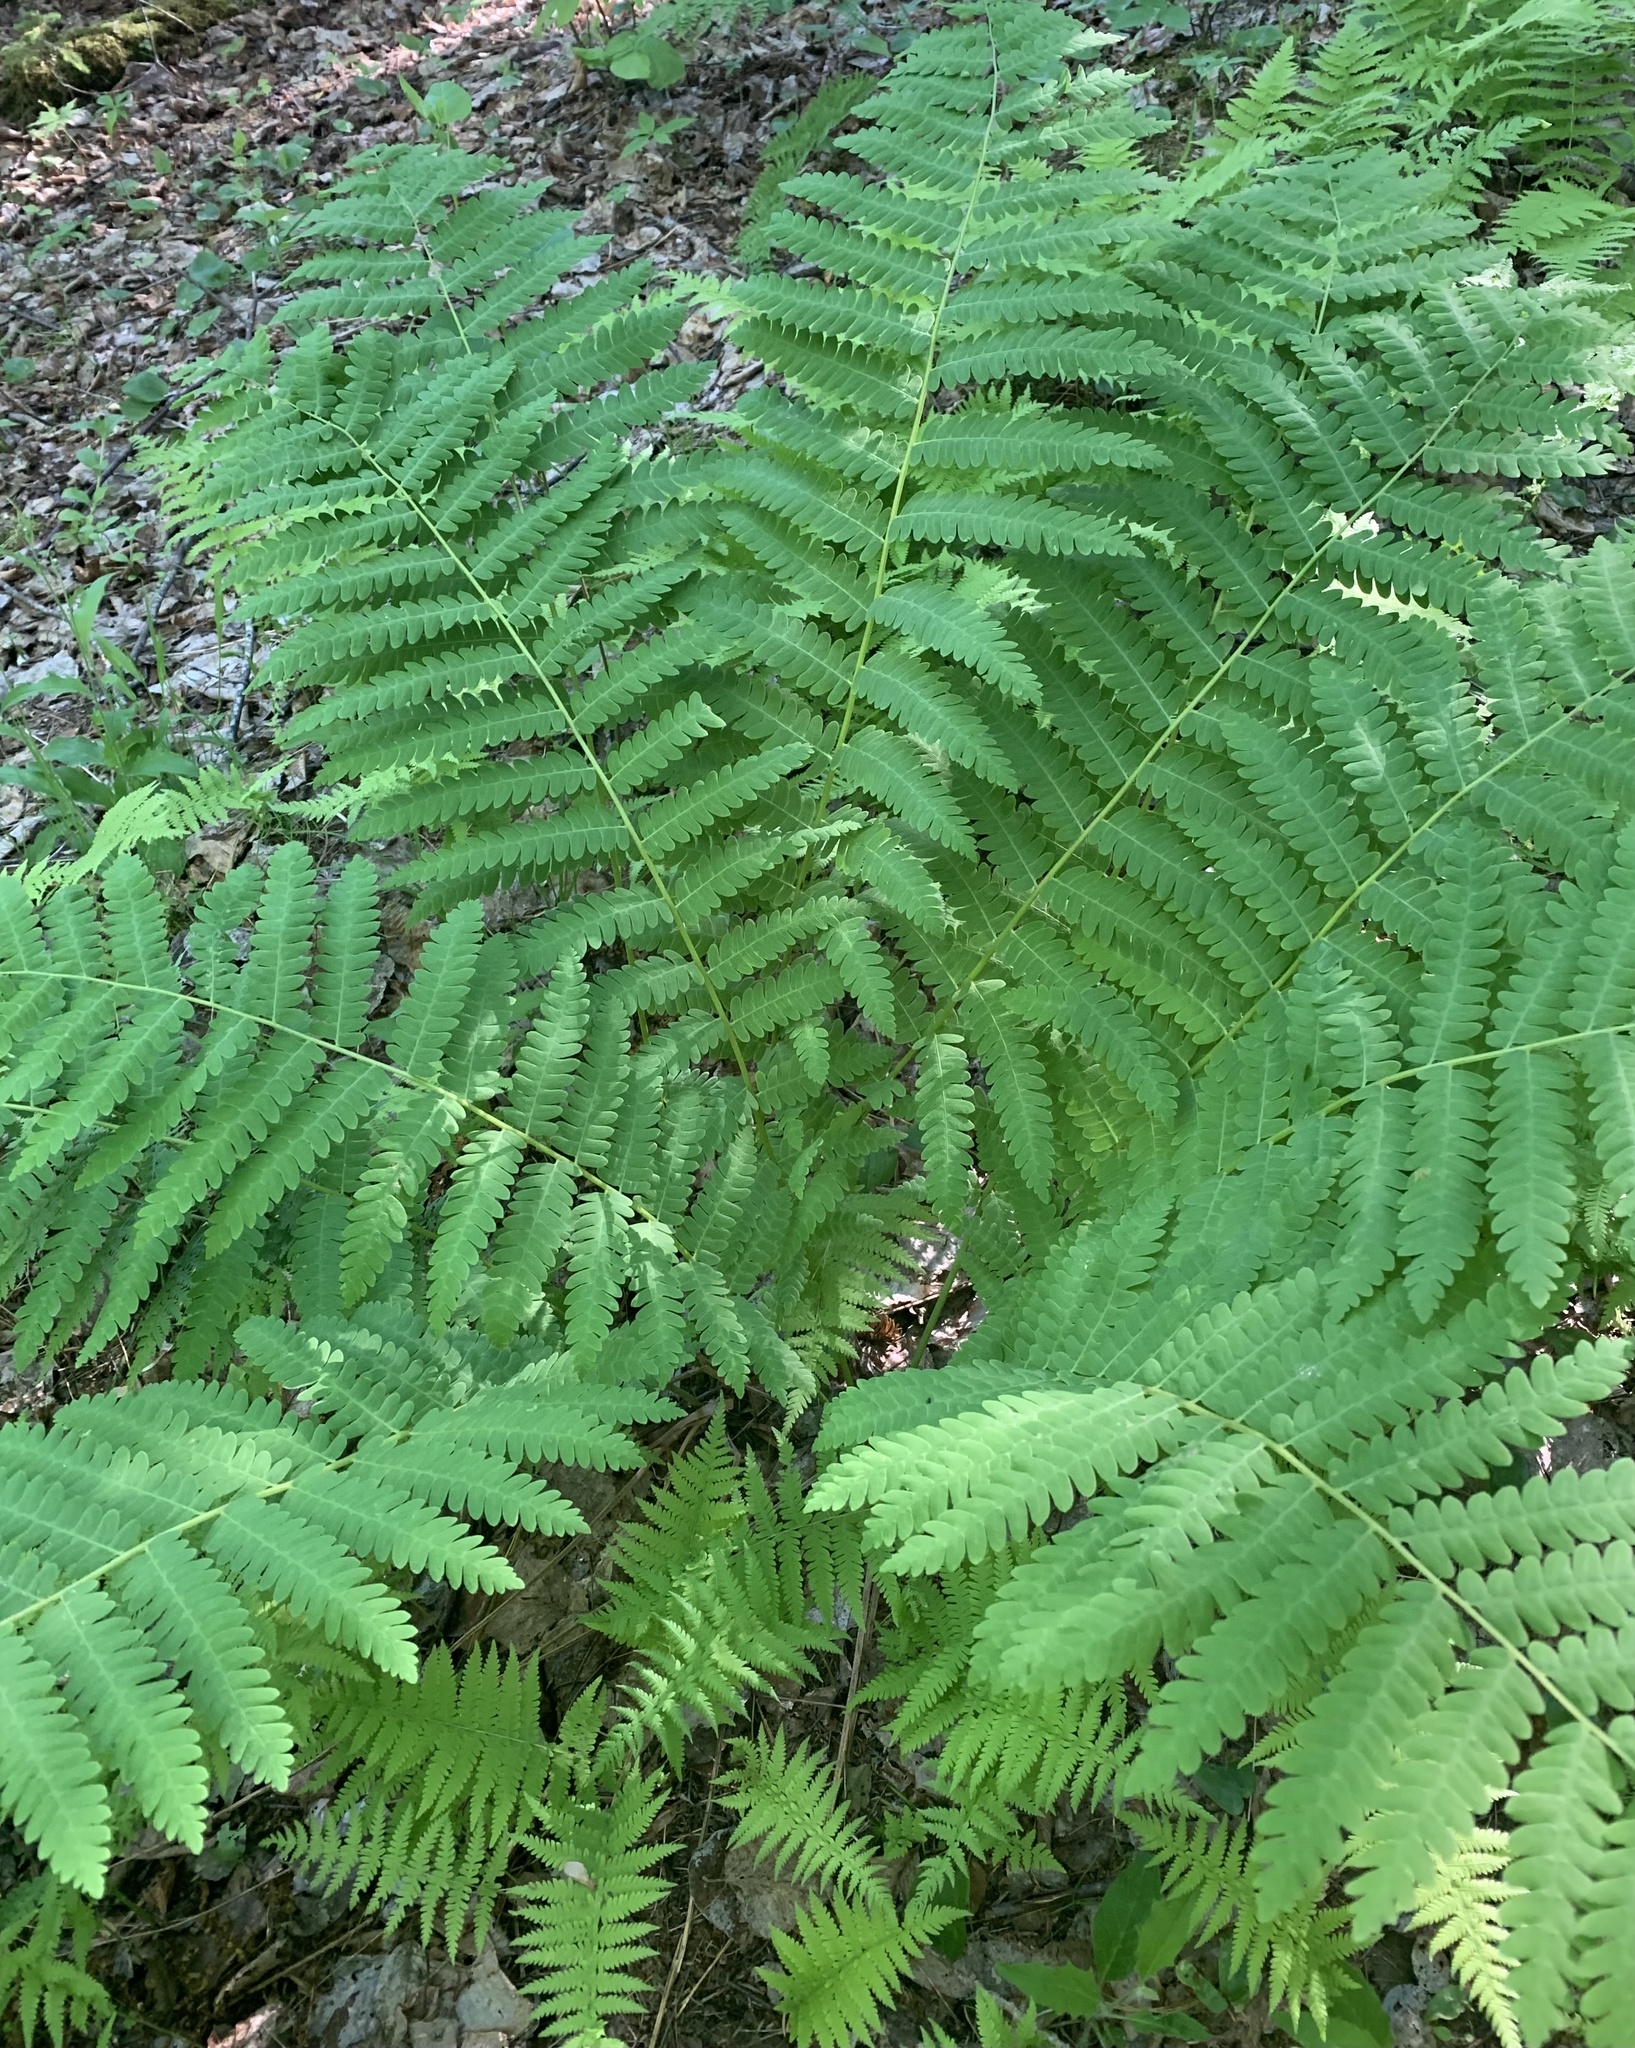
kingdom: Plantae
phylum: Tracheophyta
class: Polypodiopsida
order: Osmundales
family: Osmundaceae
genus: Claytosmunda
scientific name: Claytosmunda claytoniana
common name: Clayton's fern
